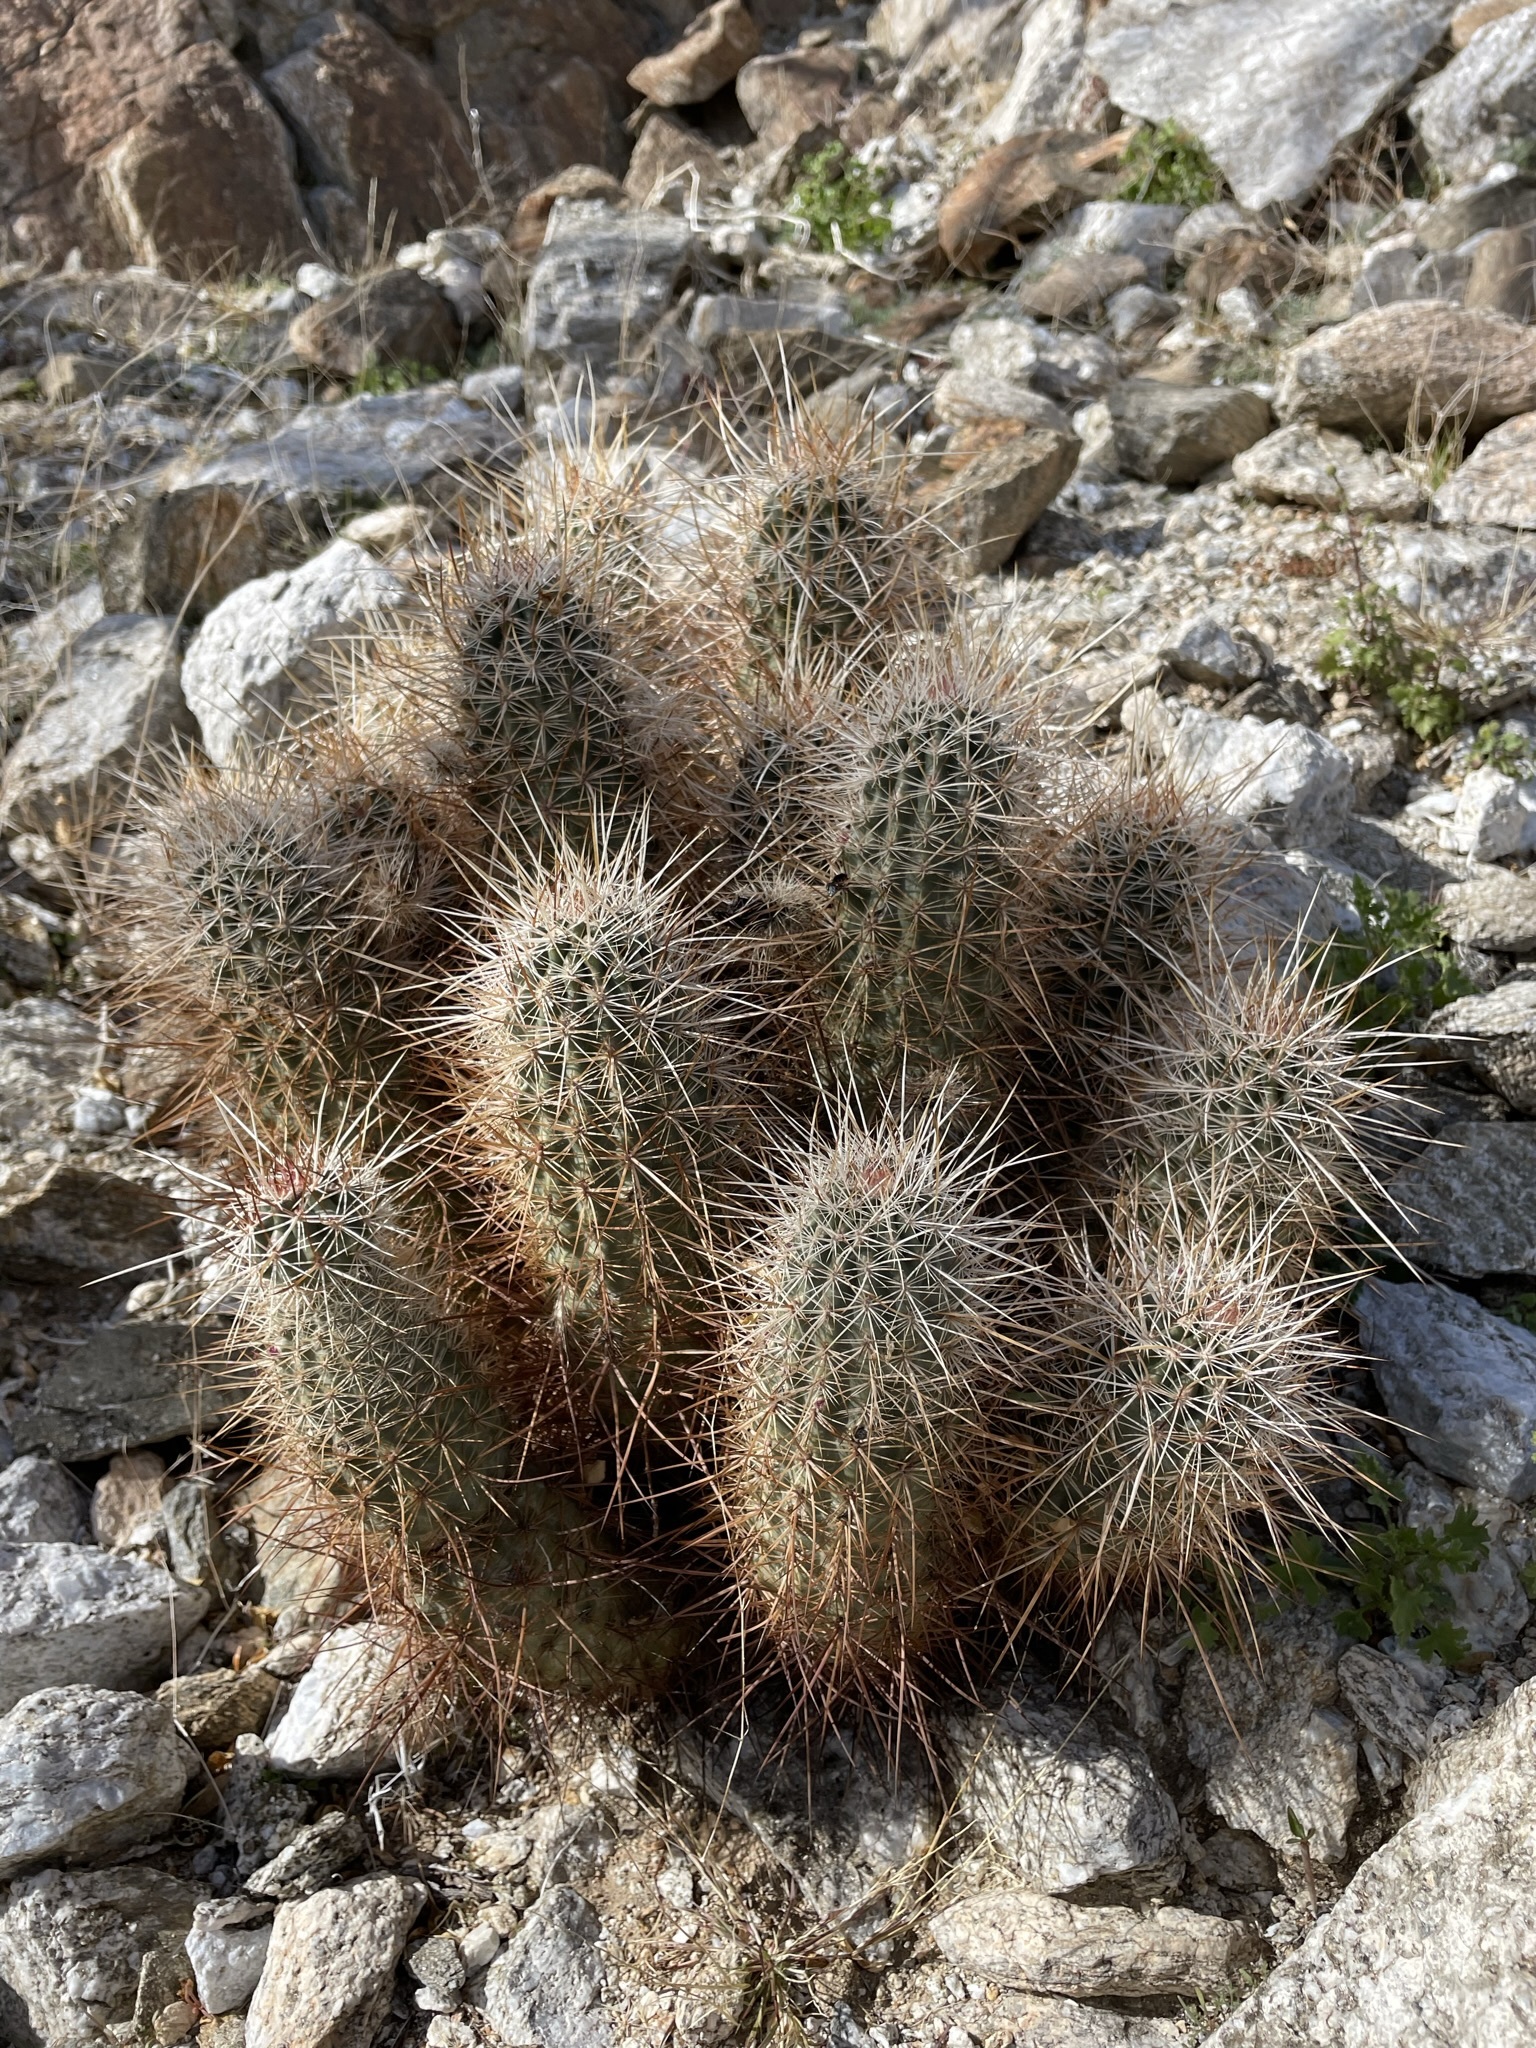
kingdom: Plantae
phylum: Tracheophyta
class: Magnoliopsida
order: Caryophyllales
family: Cactaceae
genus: Echinocereus
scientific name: Echinocereus engelmannii
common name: Engelmann's hedgehog cactus
